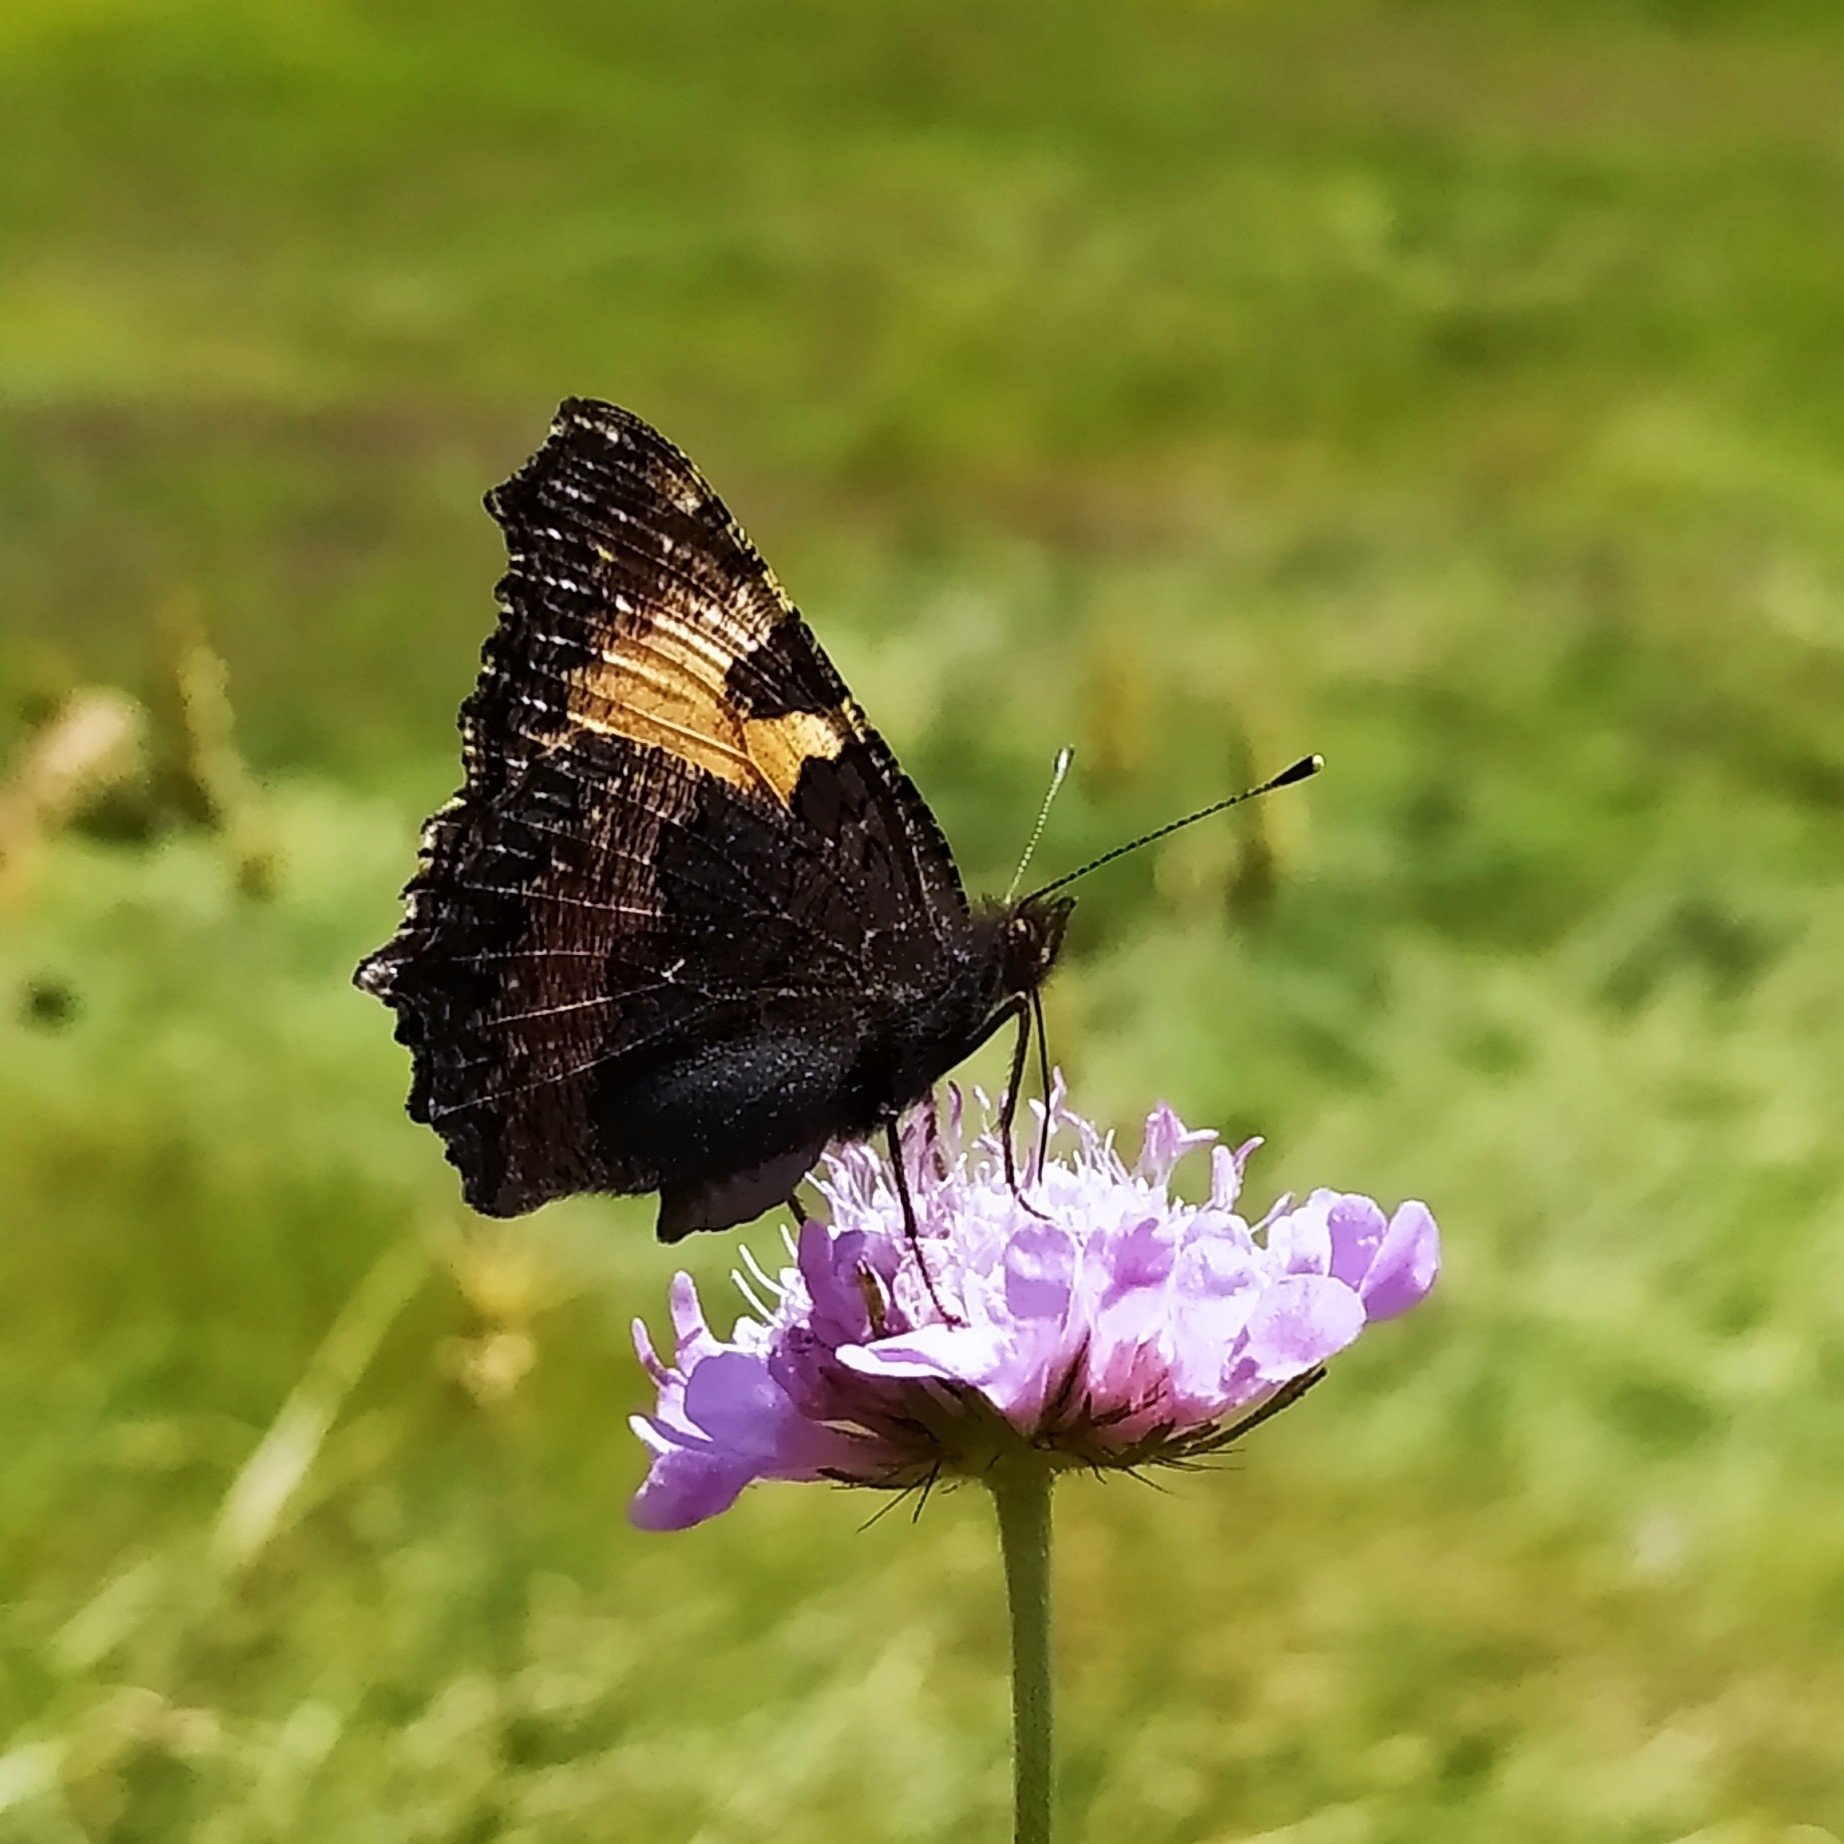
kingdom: Animalia
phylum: Arthropoda
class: Insecta
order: Lepidoptera
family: Nymphalidae
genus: Aglais
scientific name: Aglais urticae
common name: Small tortoiseshell
